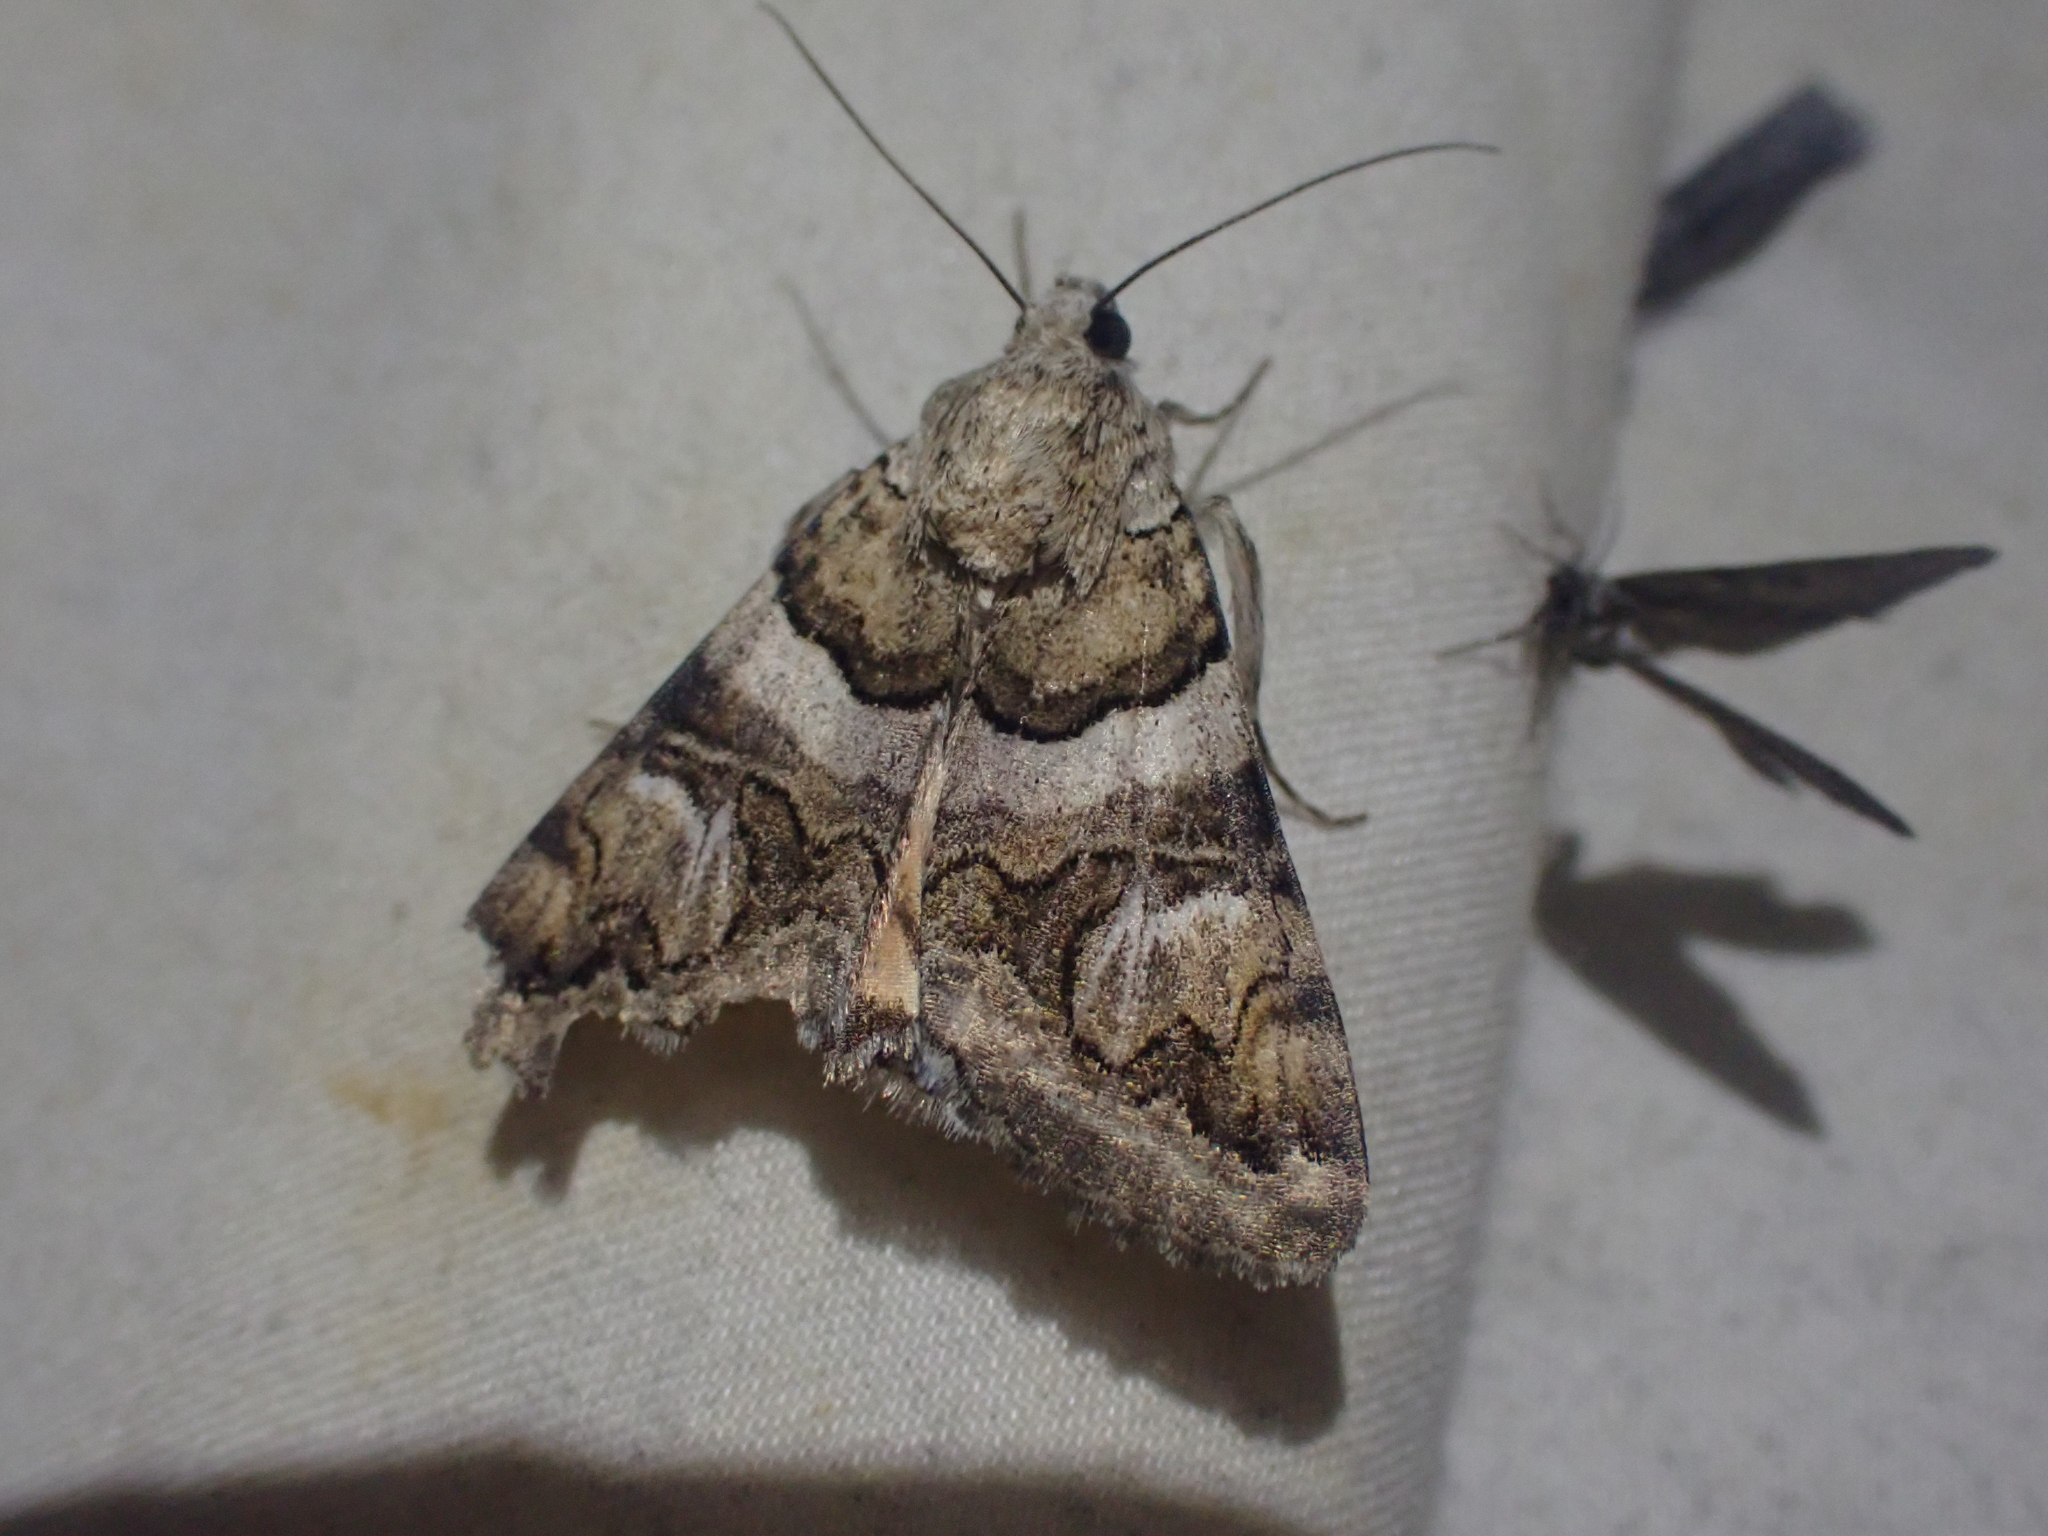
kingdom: Animalia
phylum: Arthropoda
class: Insecta
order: Lepidoptera
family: Erebidae
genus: Drasteria
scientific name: Drasteria howlandii
